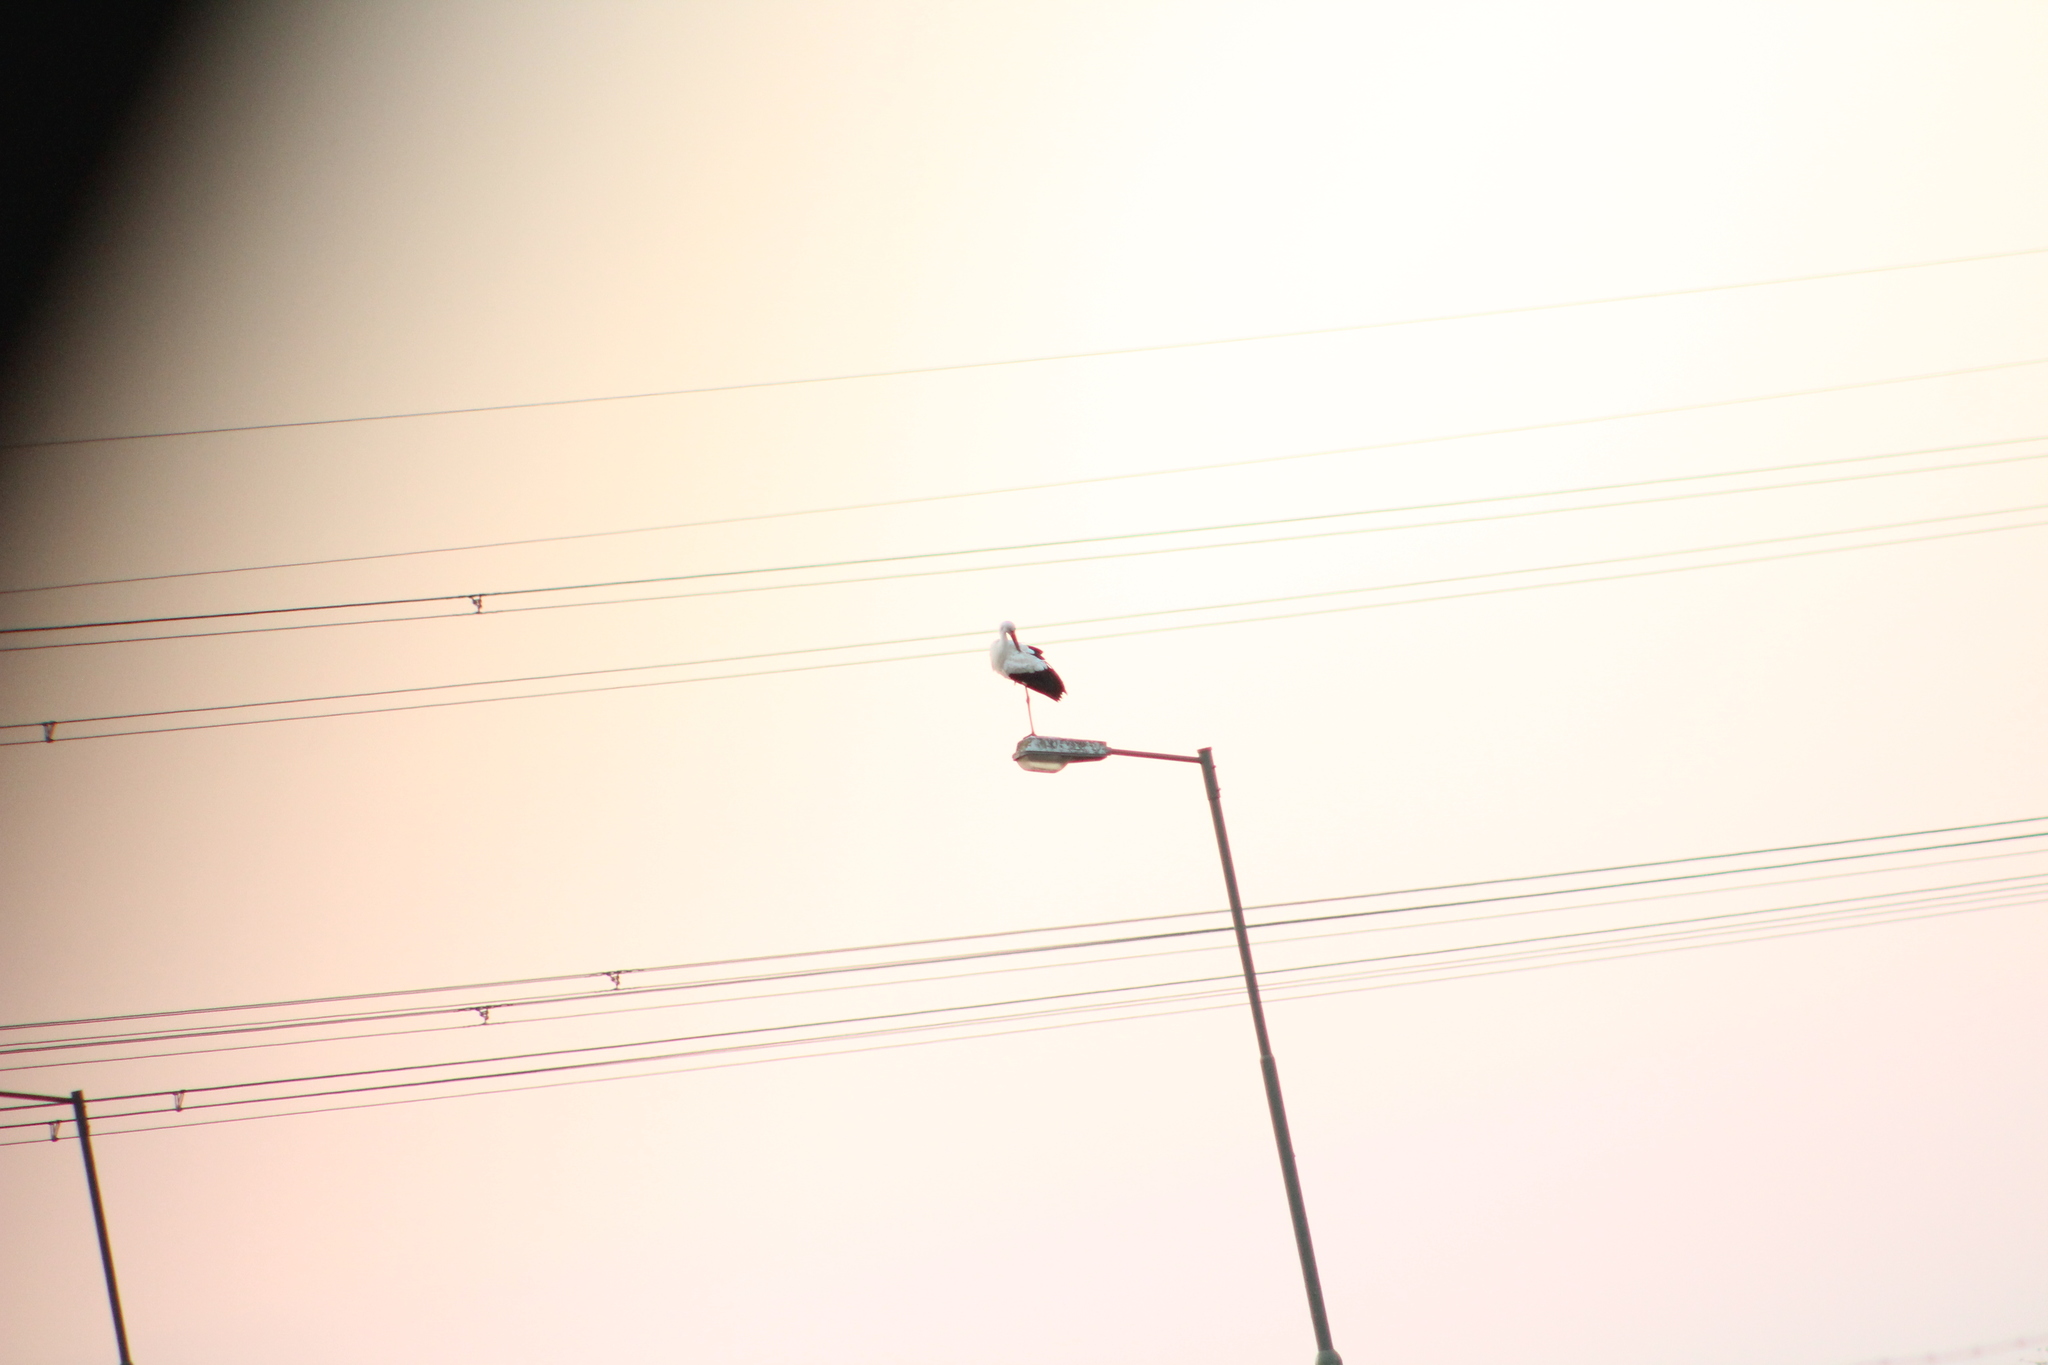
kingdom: Animalia
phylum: Chordata
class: Aves
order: Ciconiiformes
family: Ciconiidae
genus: Ciconia
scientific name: Ciconia ciconia
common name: White stork
